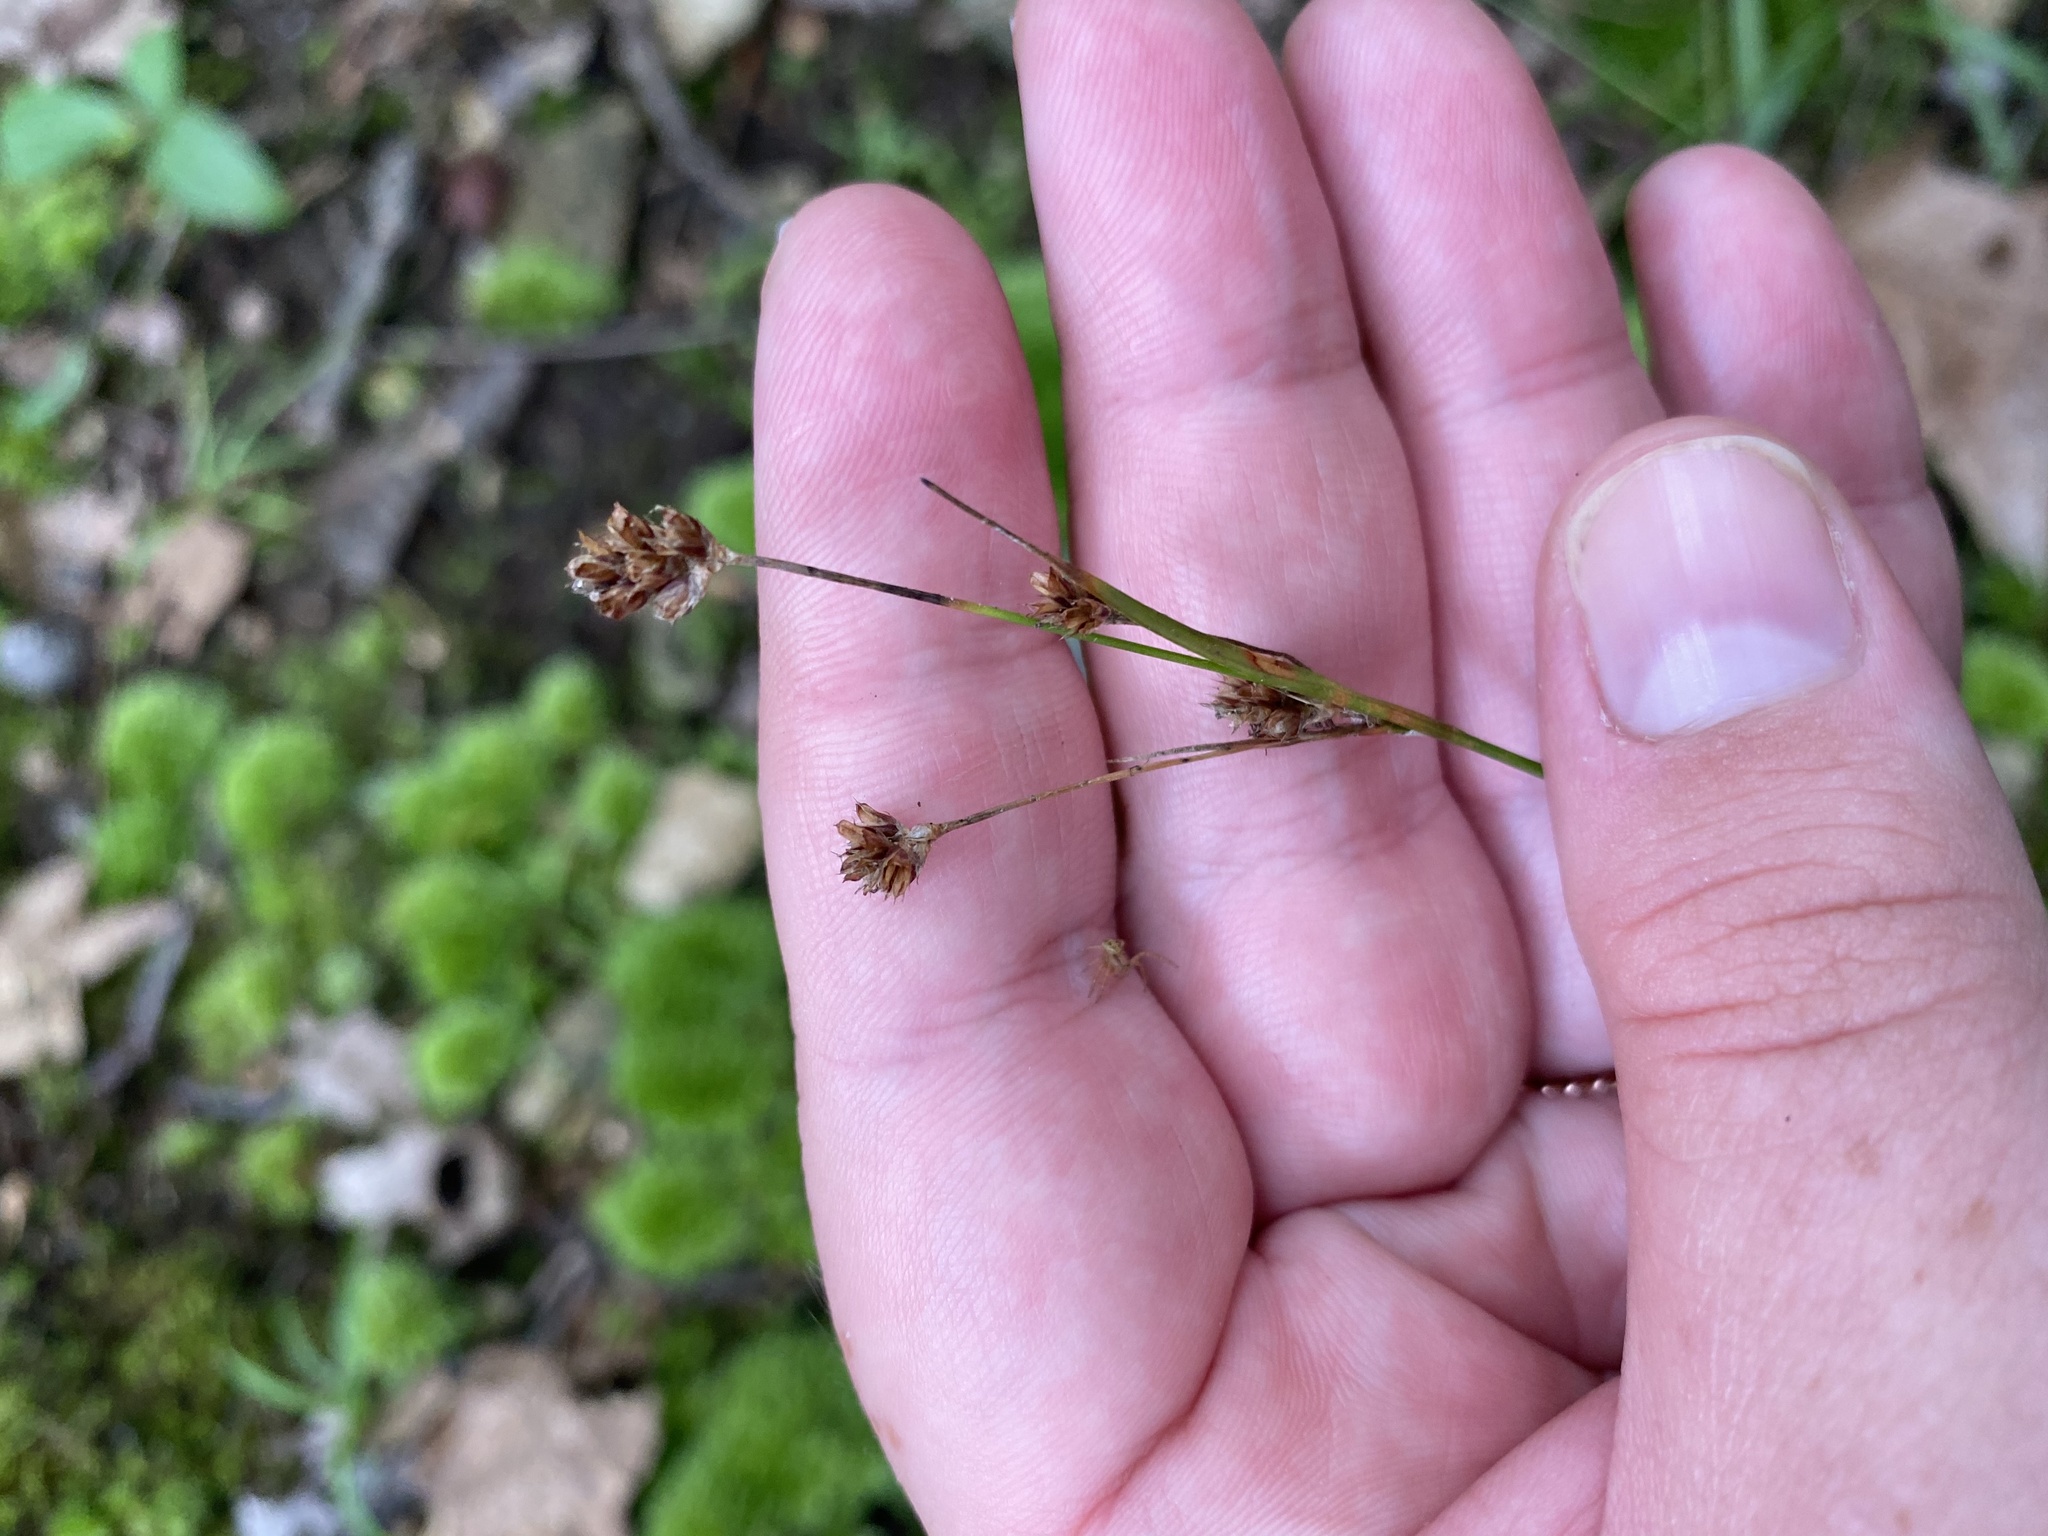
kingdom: Plantae
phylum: Tracheophyta
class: Liliopsida
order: Poales
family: Juncaceae
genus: Luzula
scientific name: Luzula multiflora
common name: Heath wood-rush
